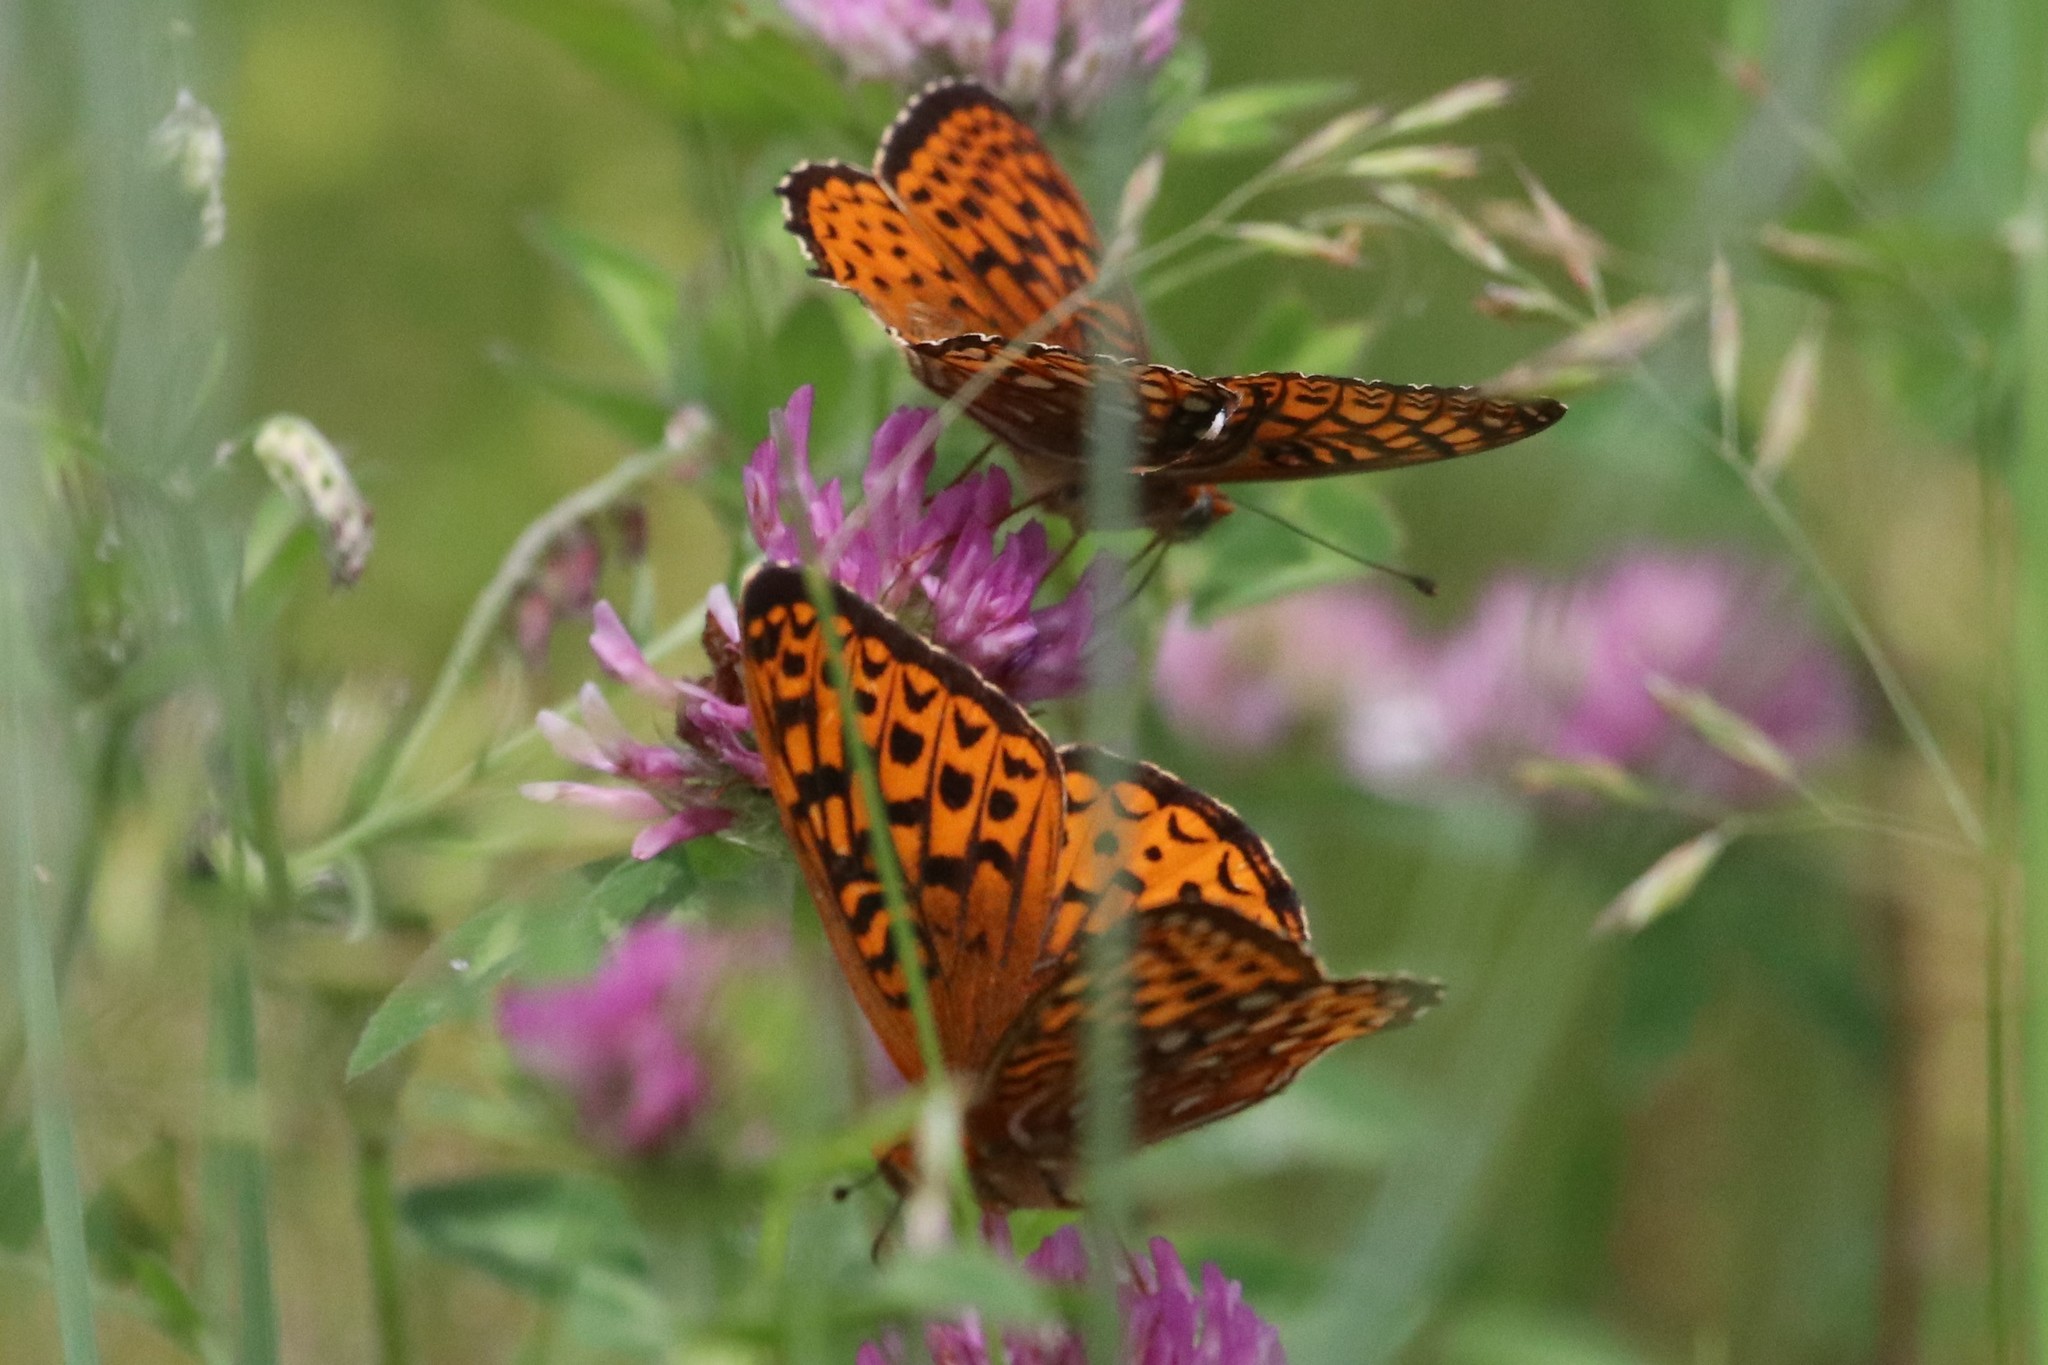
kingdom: Animalia
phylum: Arthropoda
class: Insecta
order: Lepidoptera
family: Nymphalidae
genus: Speyeria
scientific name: Speyeria atlantis
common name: Atlantis fritillary
